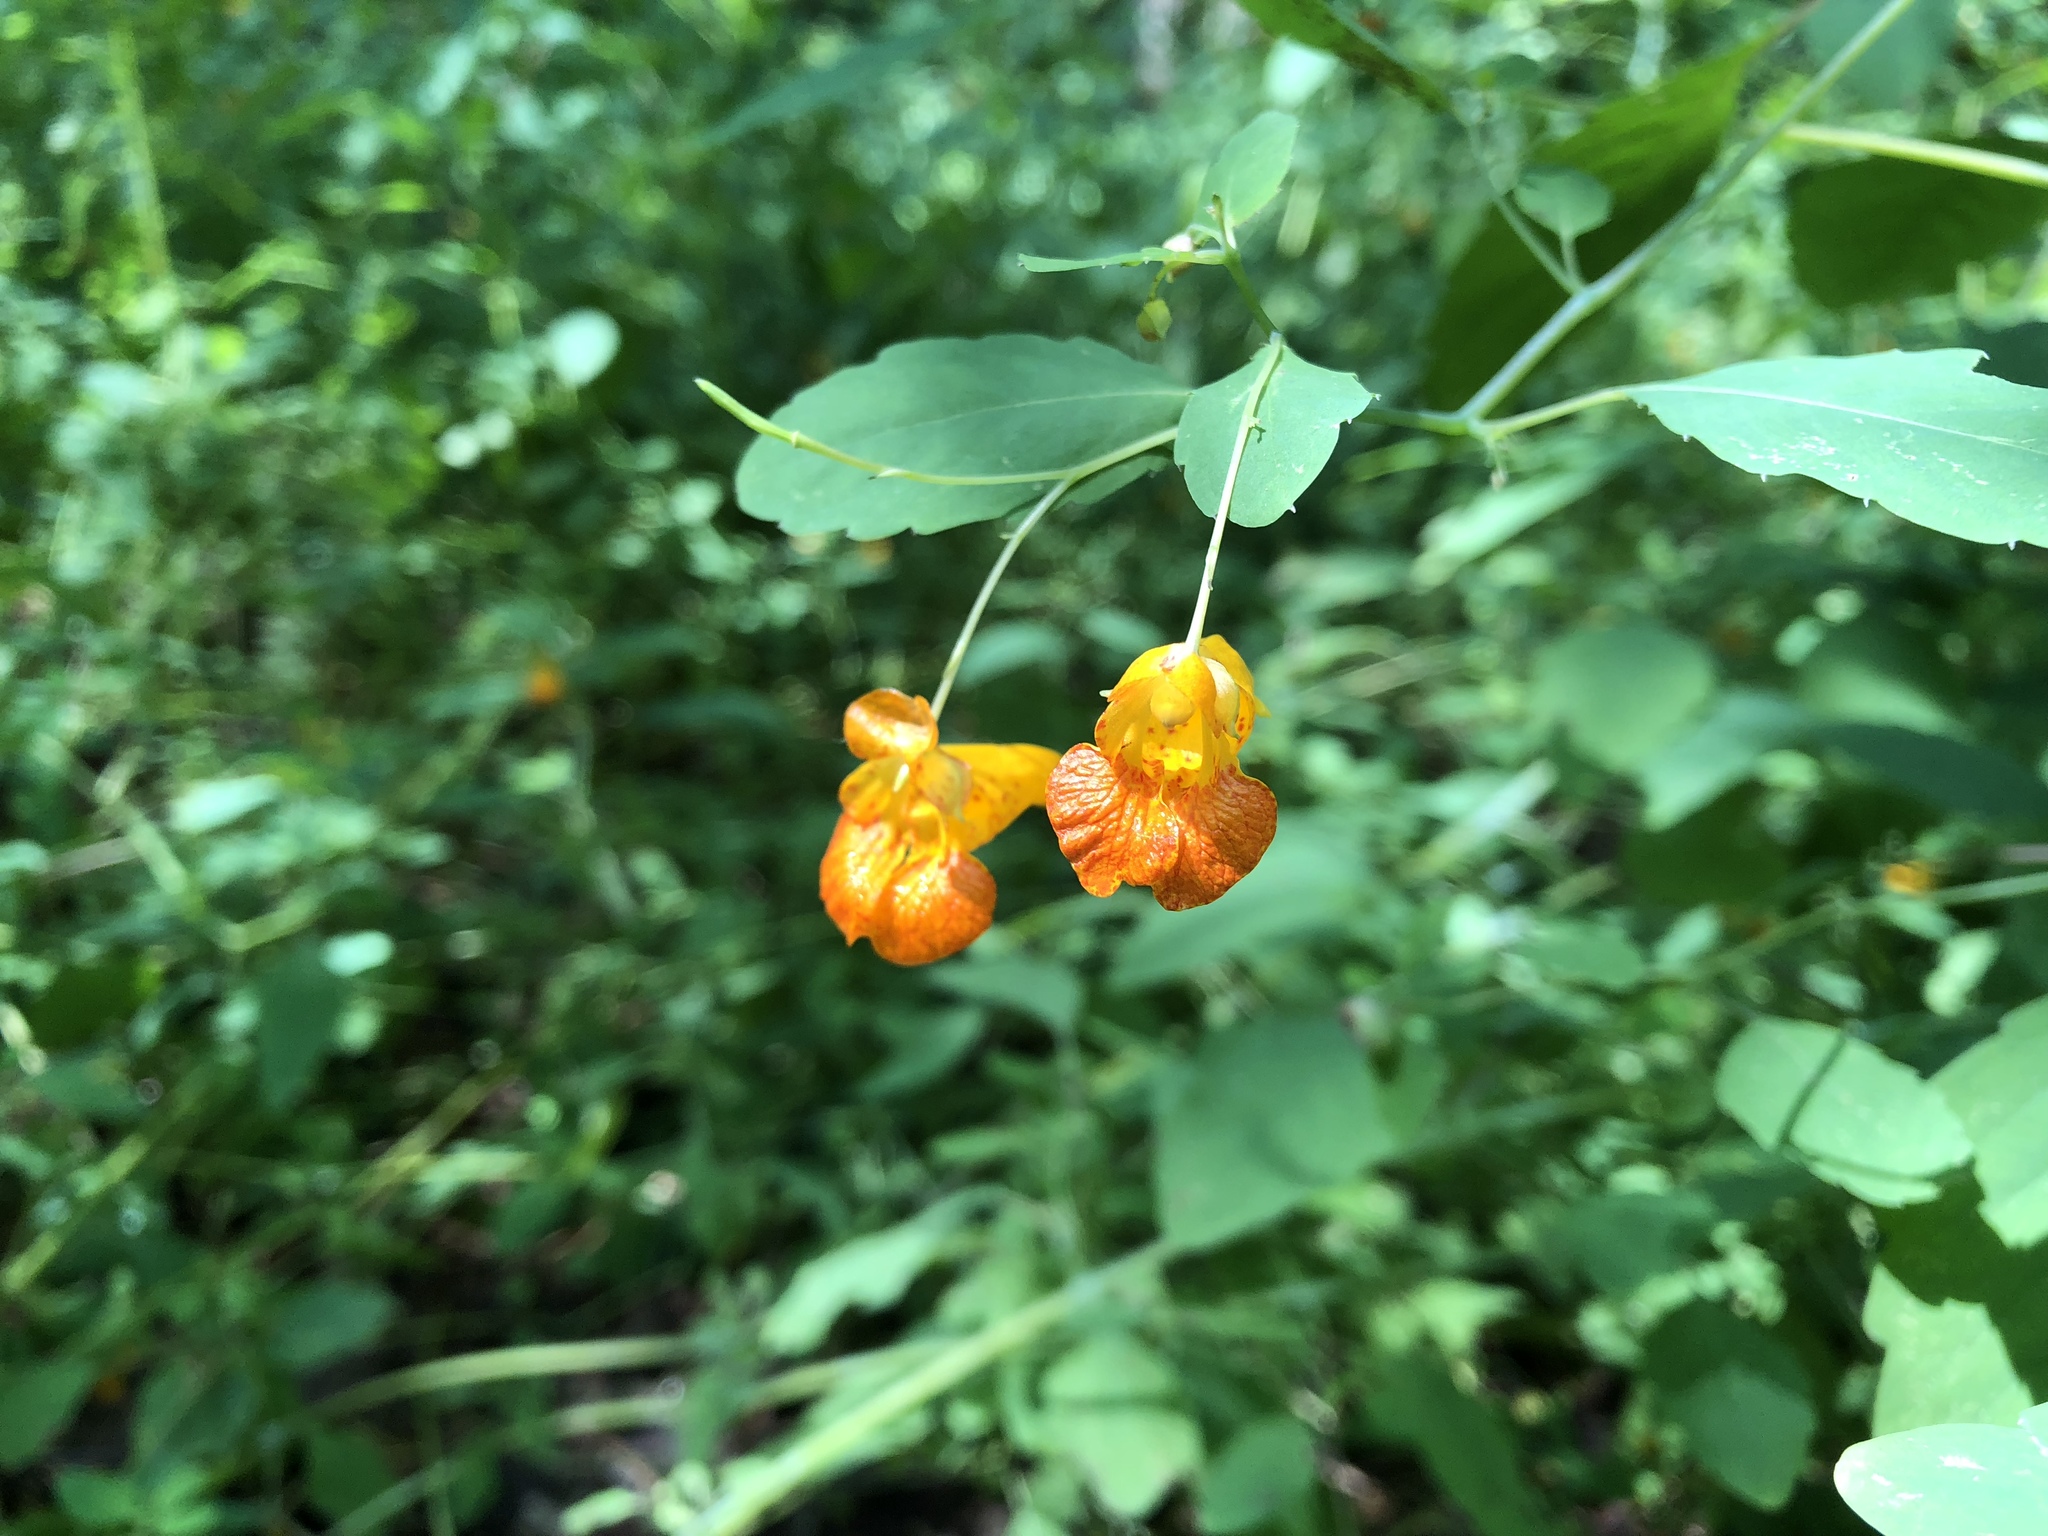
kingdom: Plantae
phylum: Tracheophyta
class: Magnoliopsida
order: Ericales
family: Balsaminaceae
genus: Impatiens
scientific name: Impatiens capensis
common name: Orange balsam
